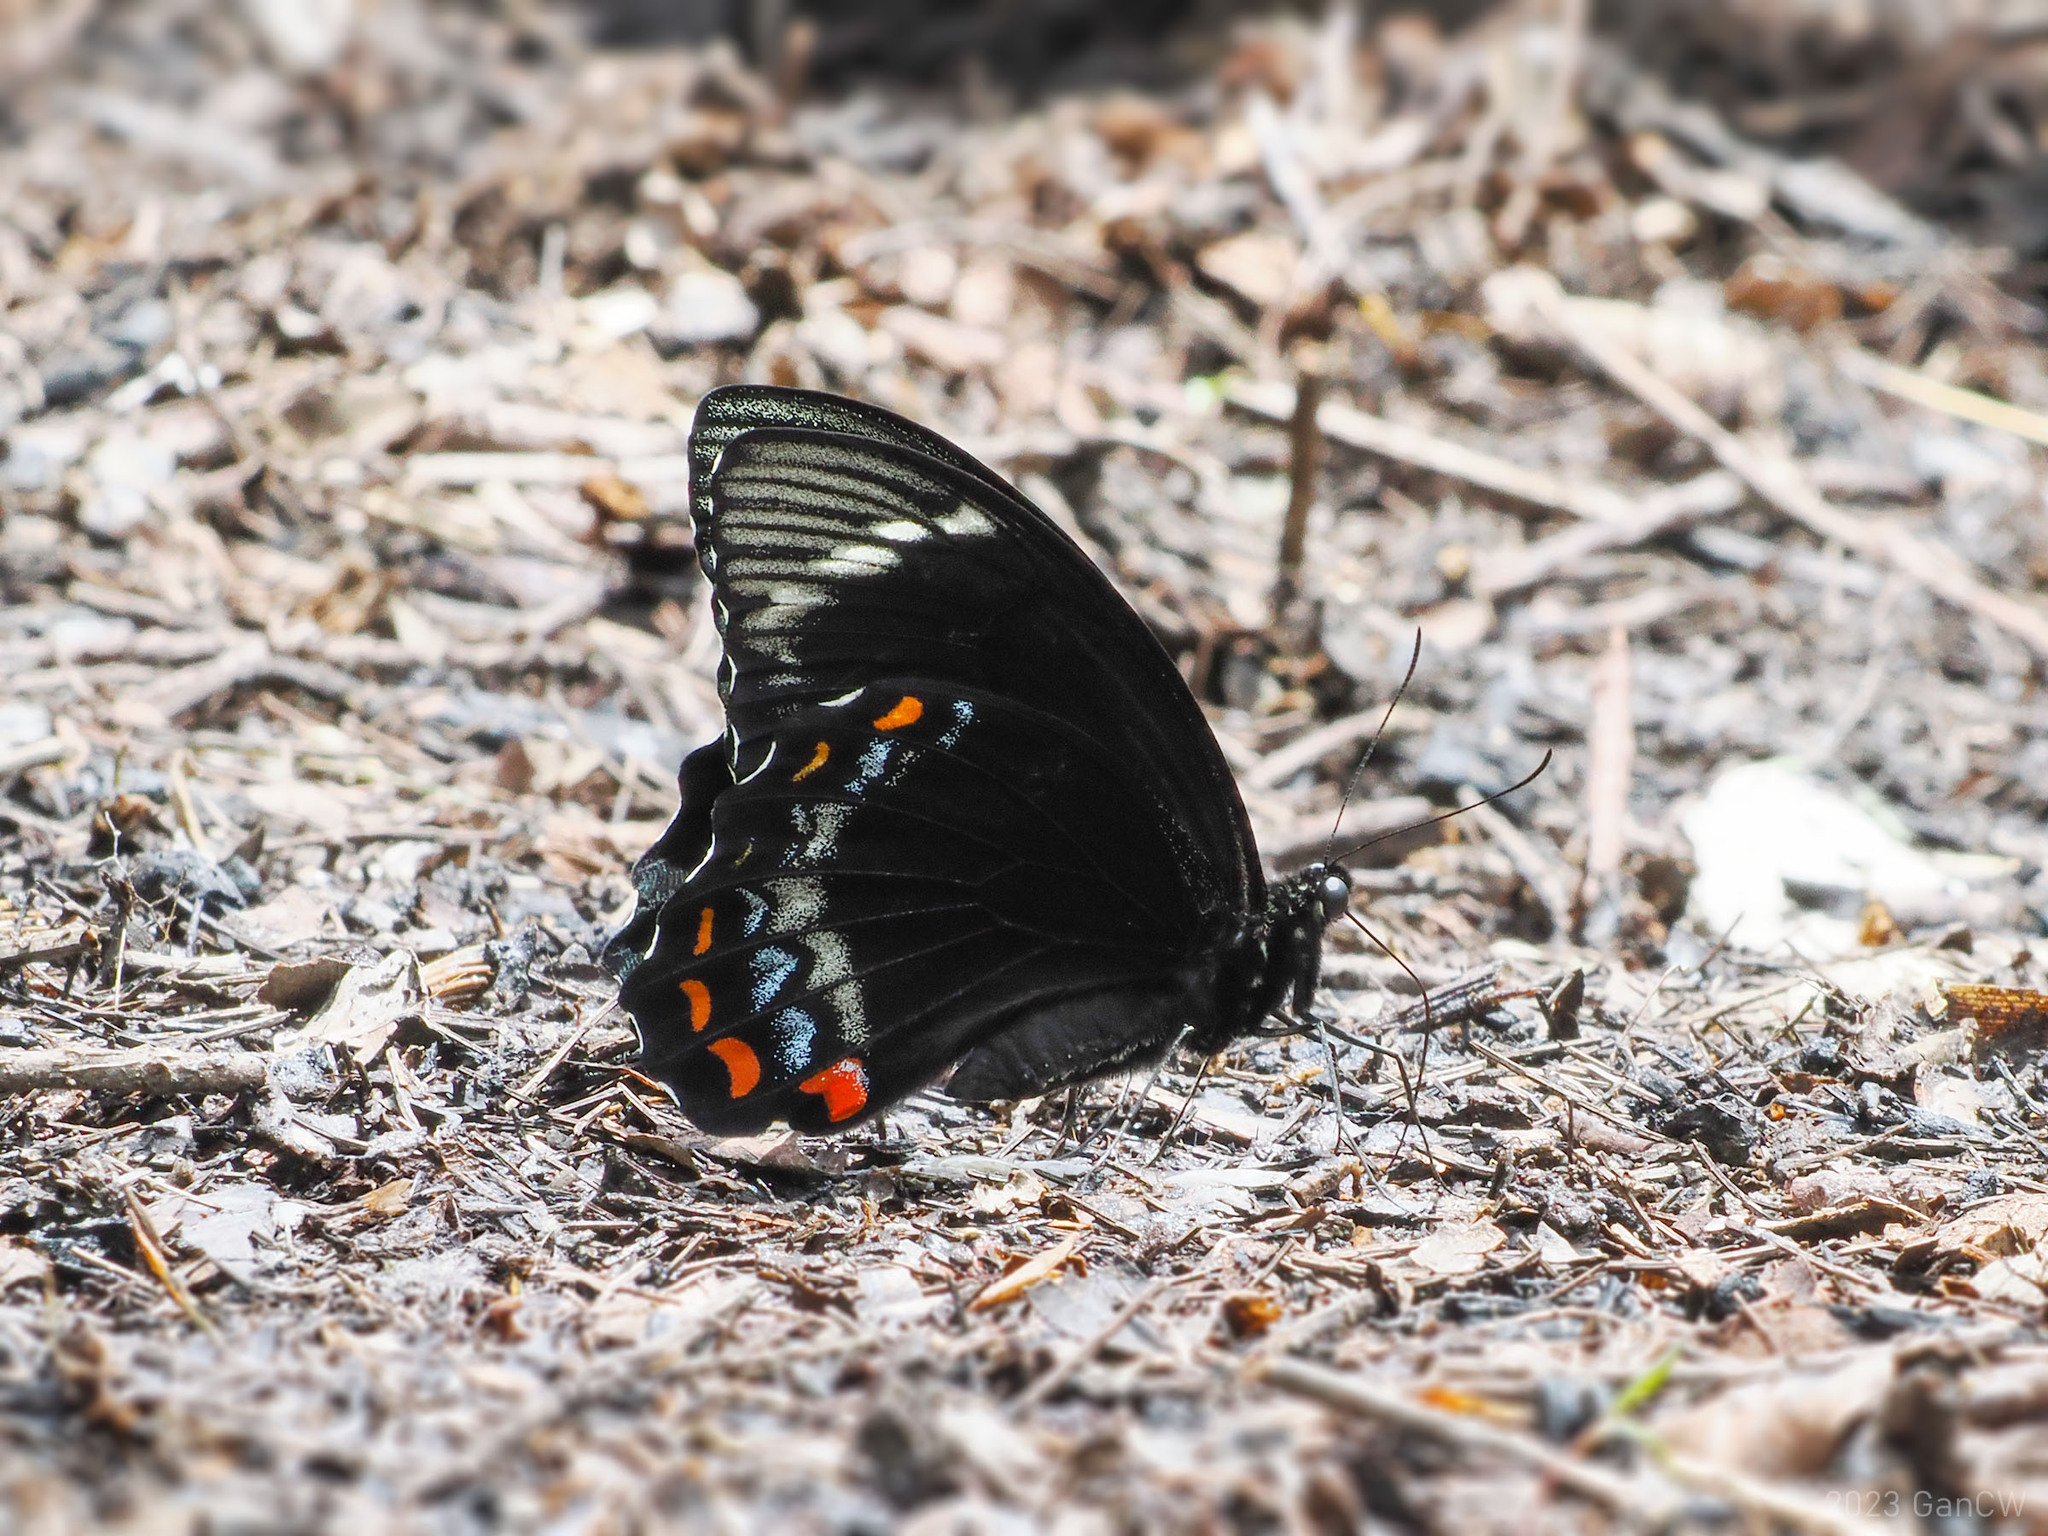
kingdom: Animalia
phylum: Arthropoda
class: Insecta
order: Lepidoptera
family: Papilionidae
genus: Papilio
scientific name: Papilio aegeus
